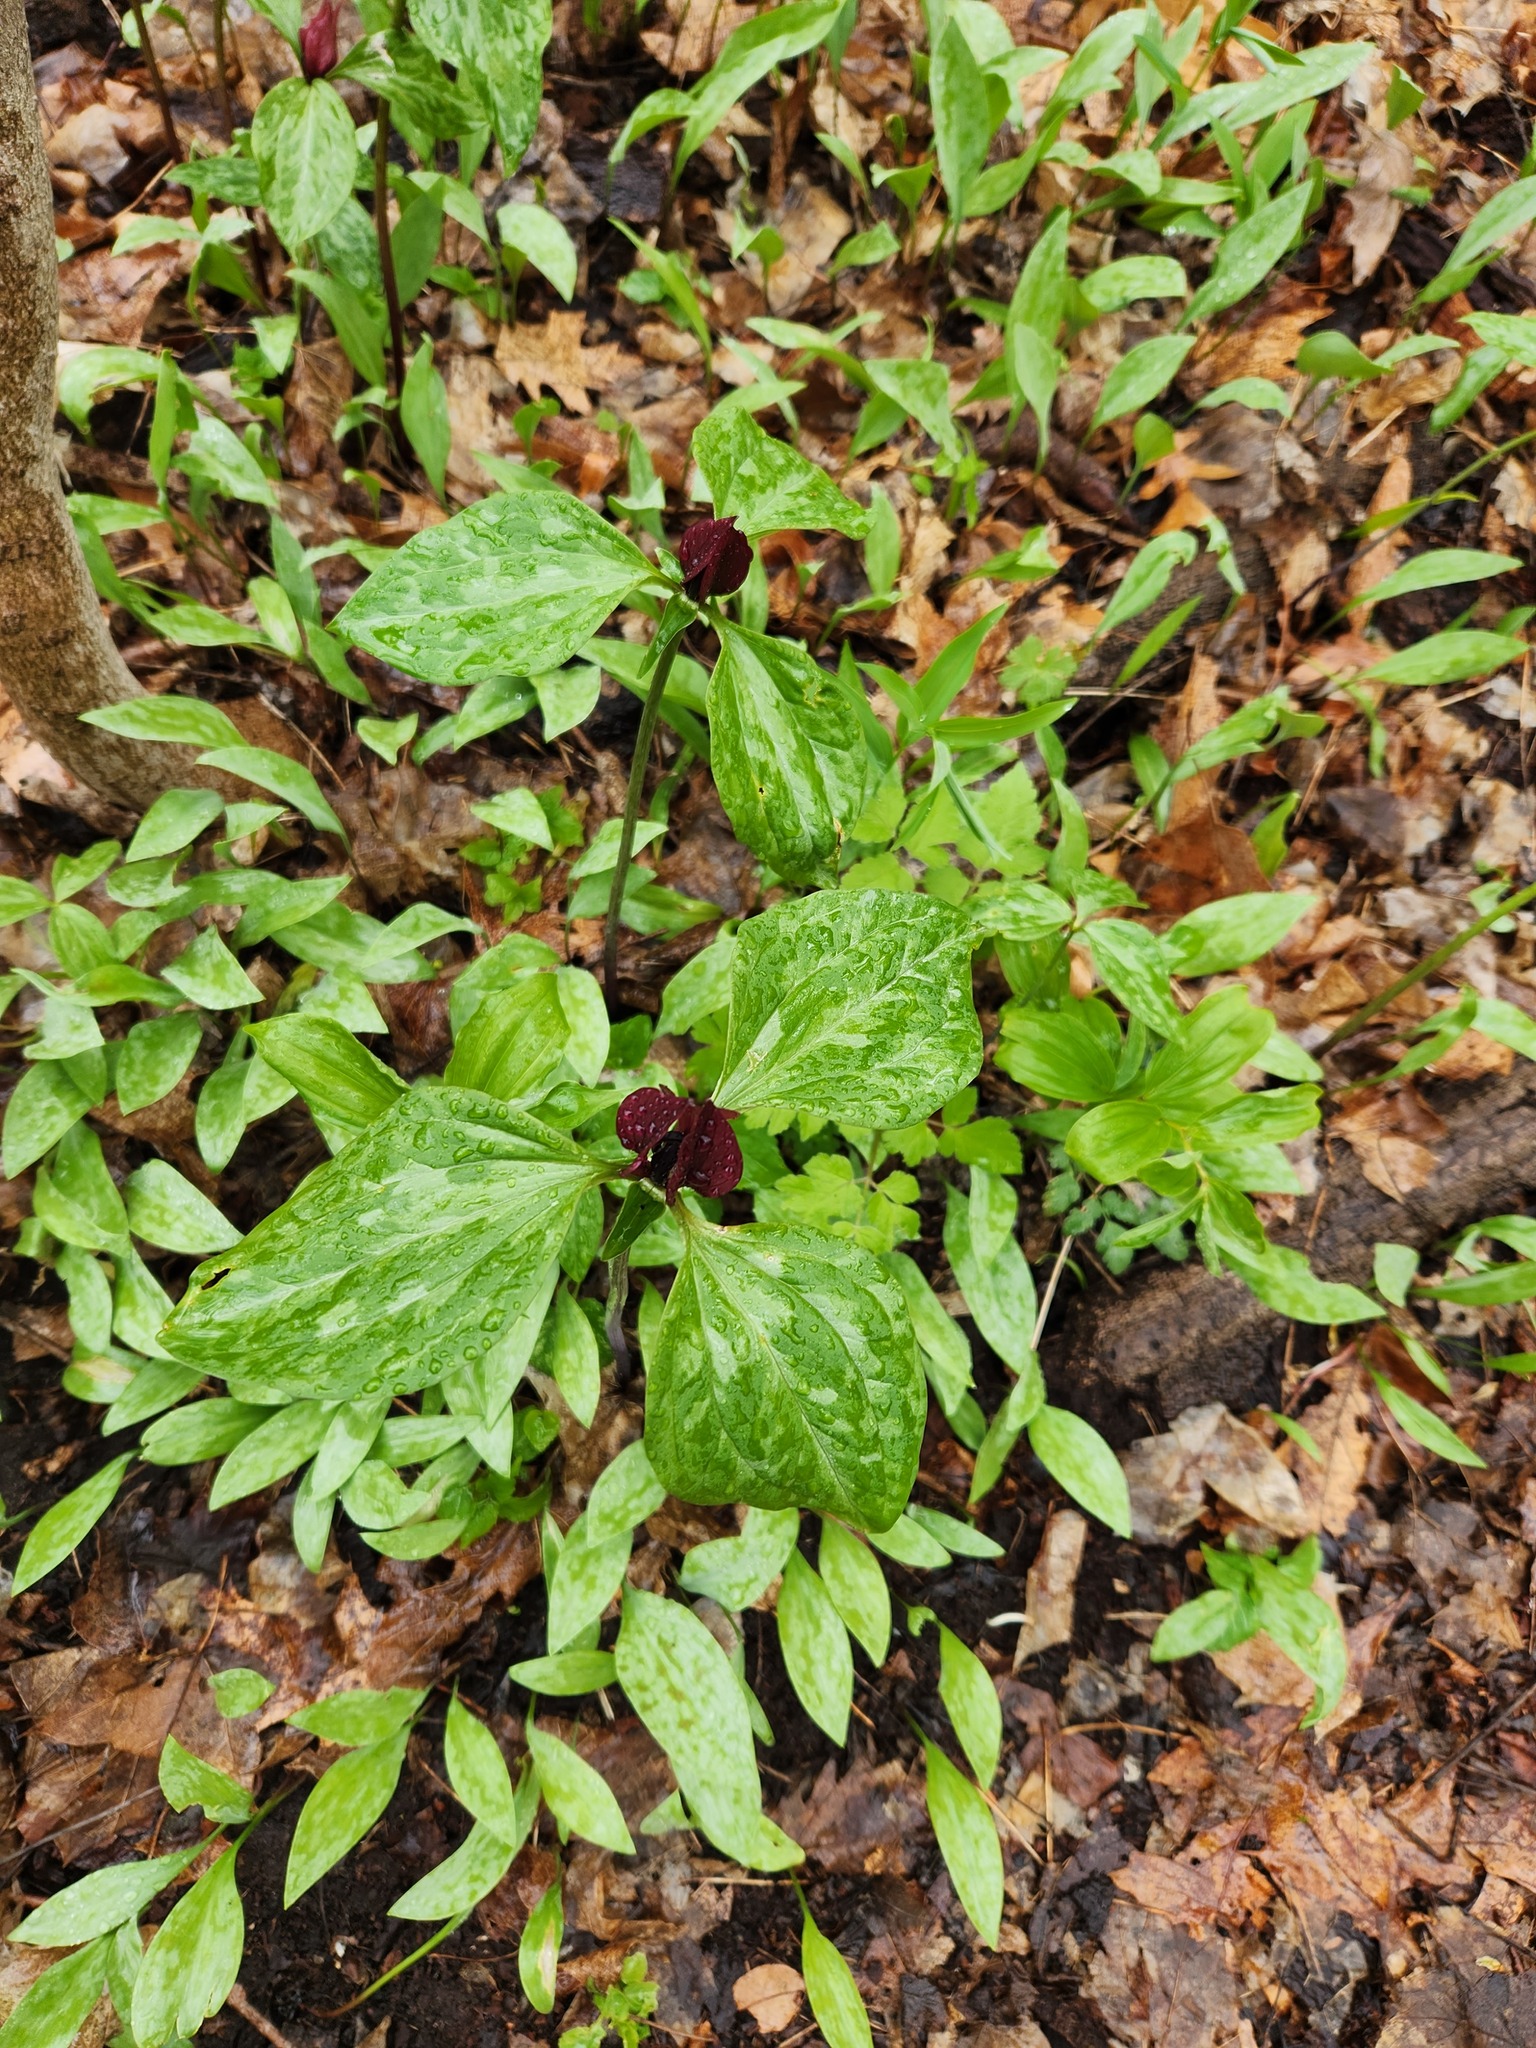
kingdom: Plantae
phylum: Tracheophyta
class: Liliopsida
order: Liliales
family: Melanthiaceae
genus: Trillium
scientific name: Trillium recurvatum
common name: Bloody butcher
